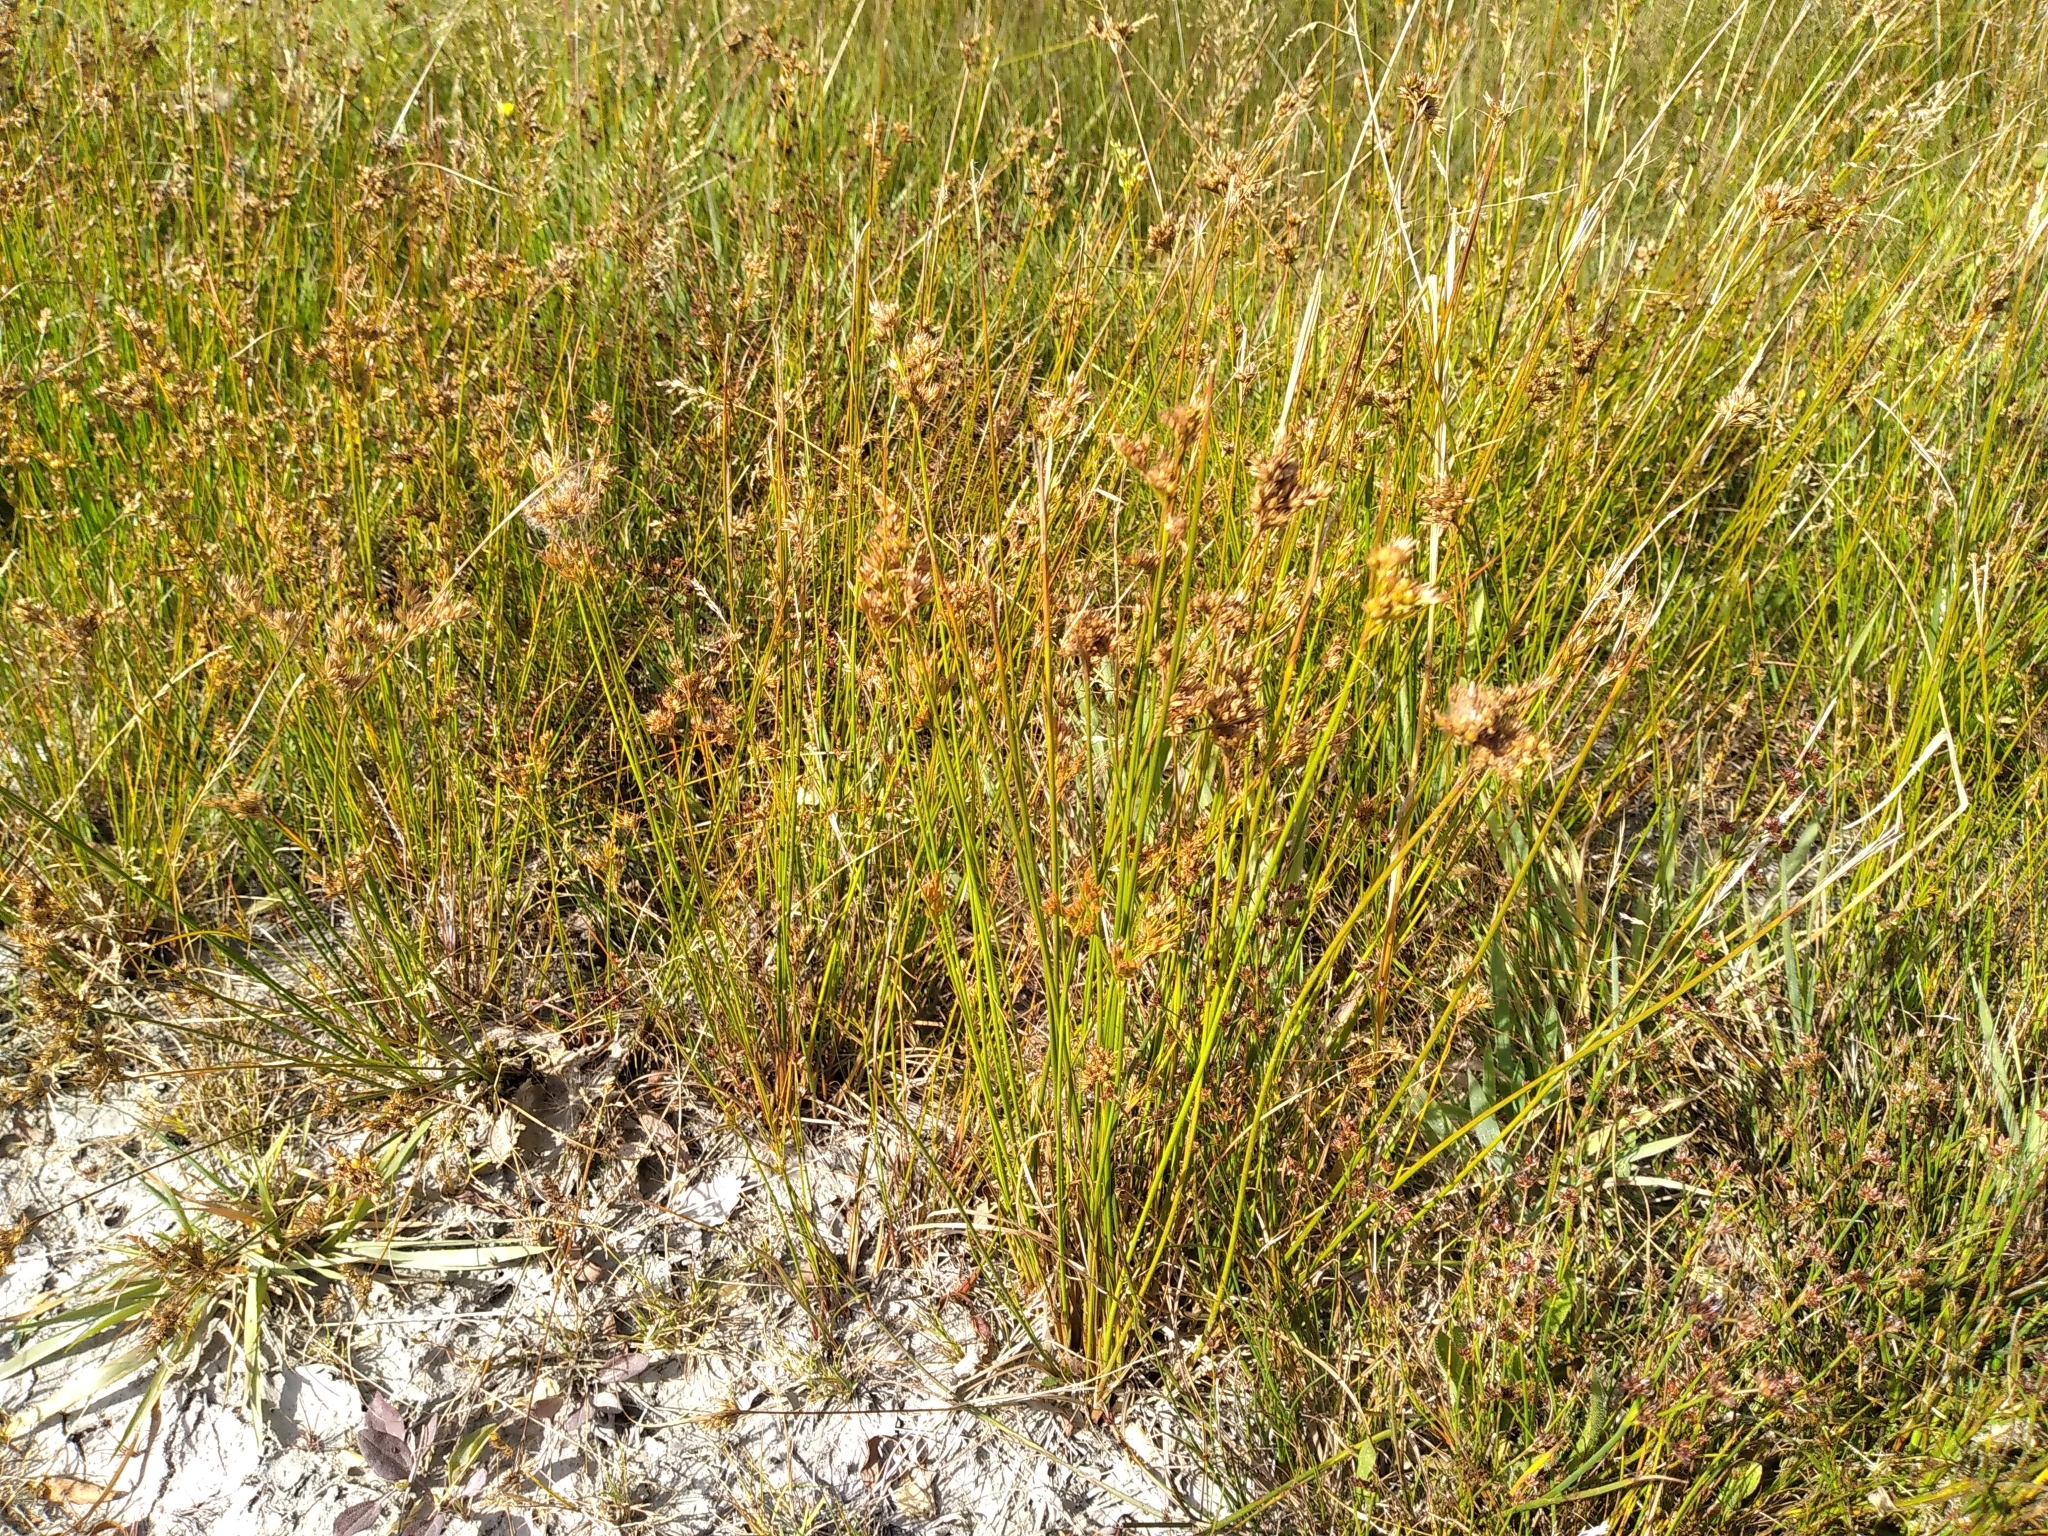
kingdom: Plantae
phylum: Tracheophyta
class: Liliopsida
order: Poales
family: Juncaceae
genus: Juncus
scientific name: Juncus tenuis
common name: Slender rush
